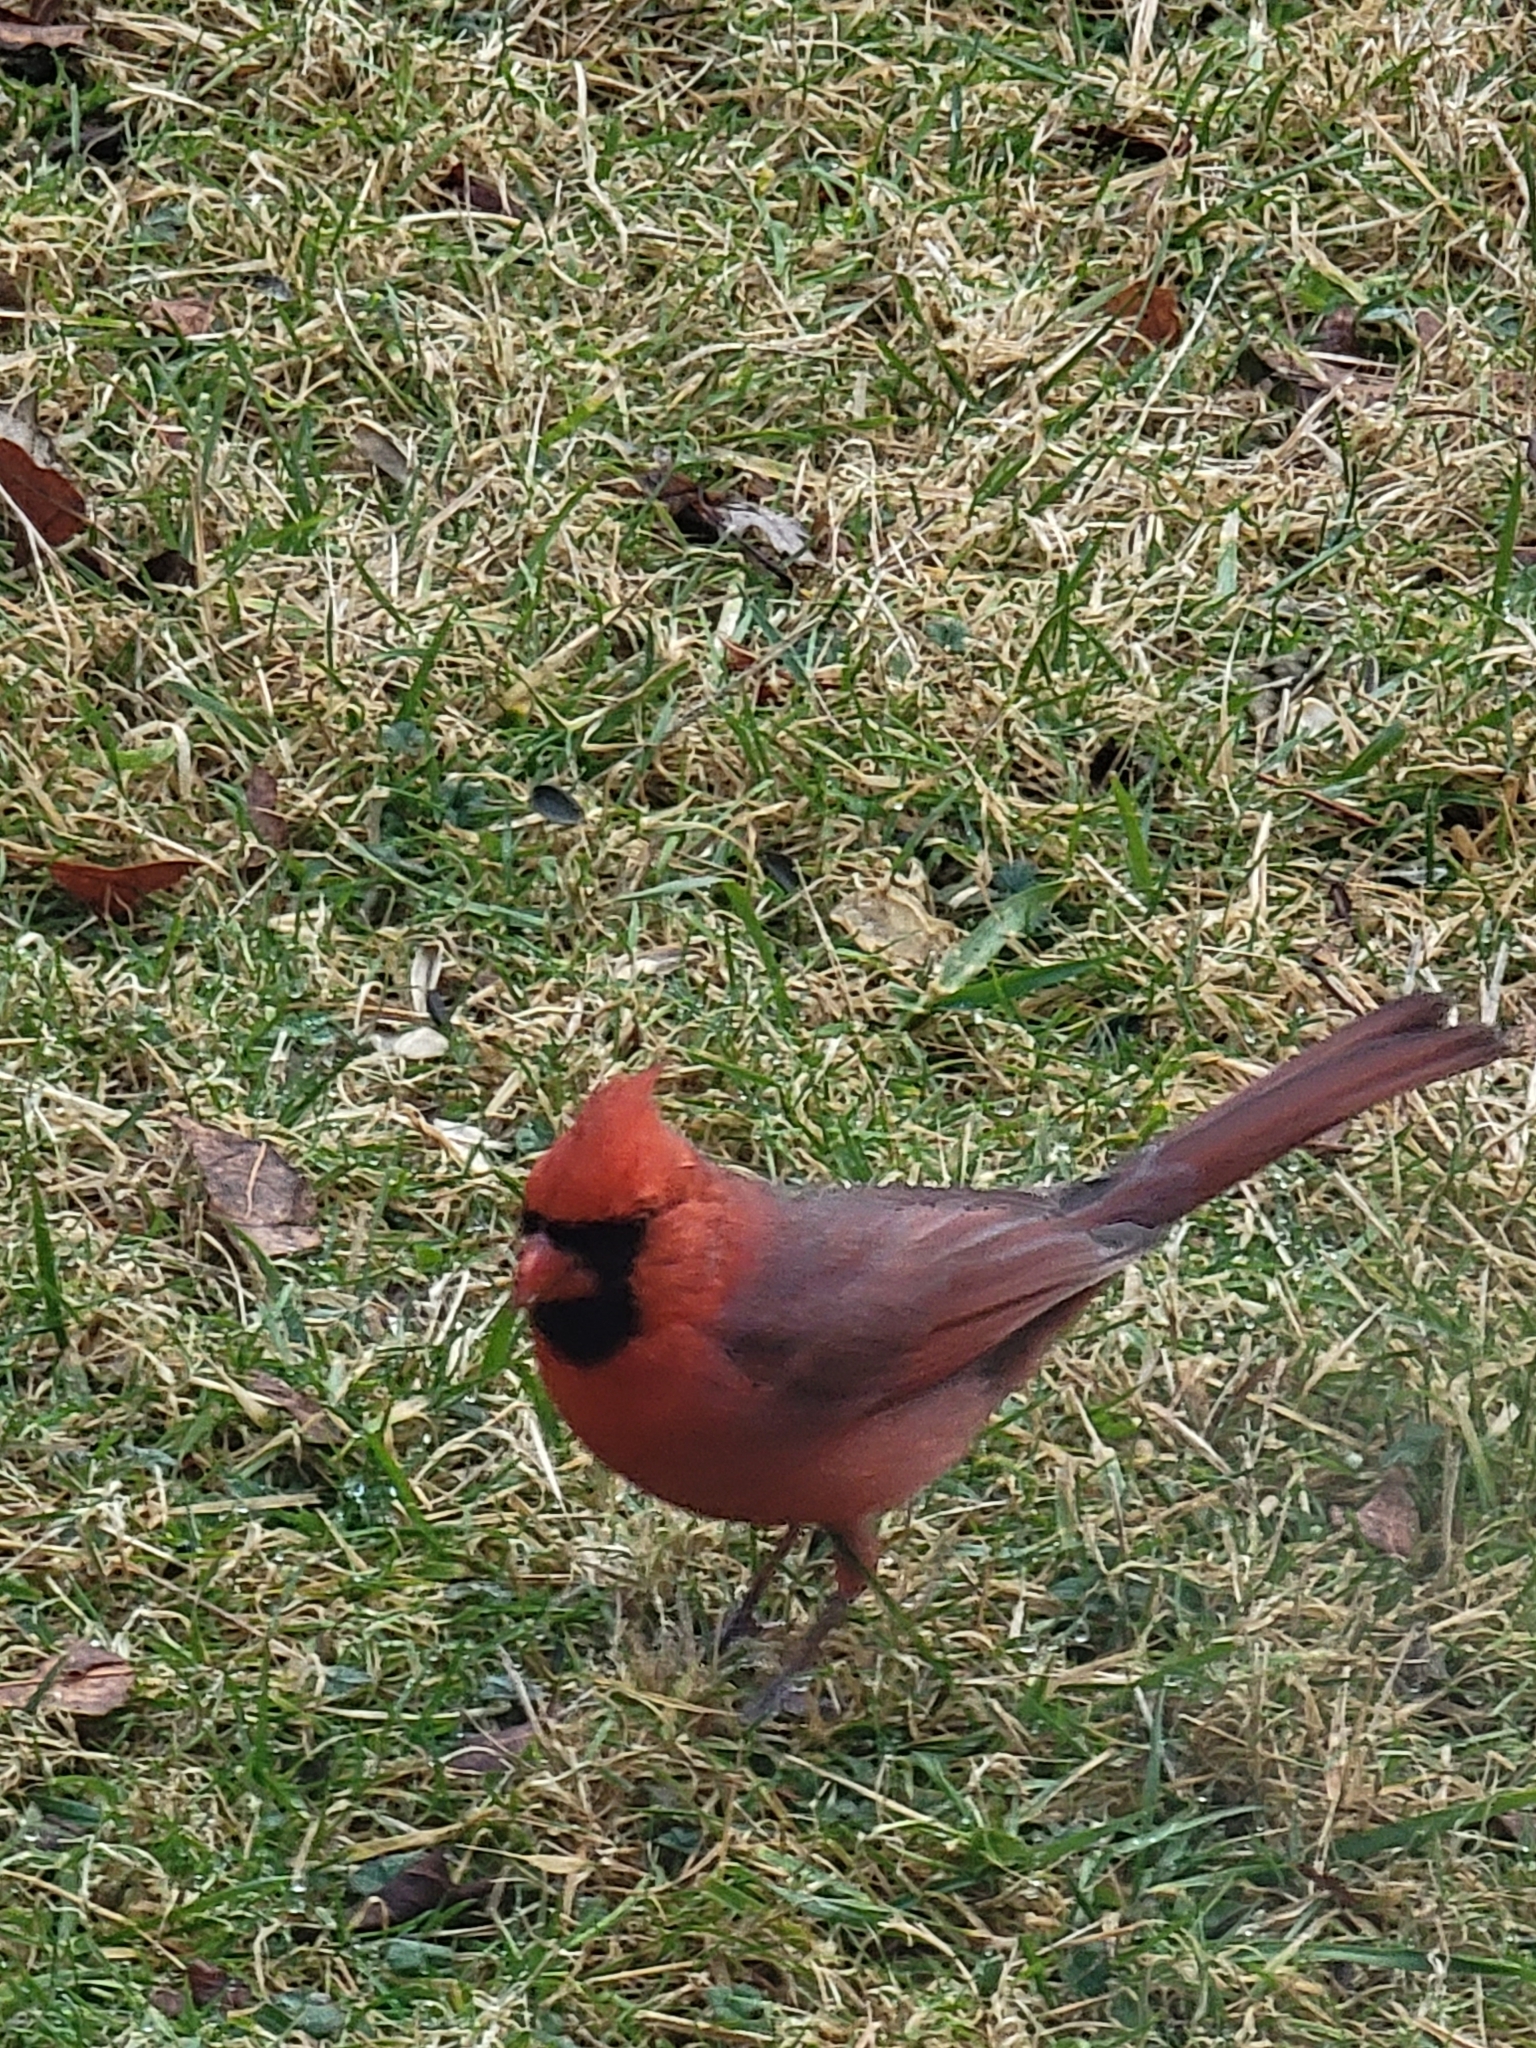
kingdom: Animalia
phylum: Chordata
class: Aves
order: Passeriformes
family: Cardinalidae
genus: Cardinalis
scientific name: Cardinalis cardinalis
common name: Northern cardinal
